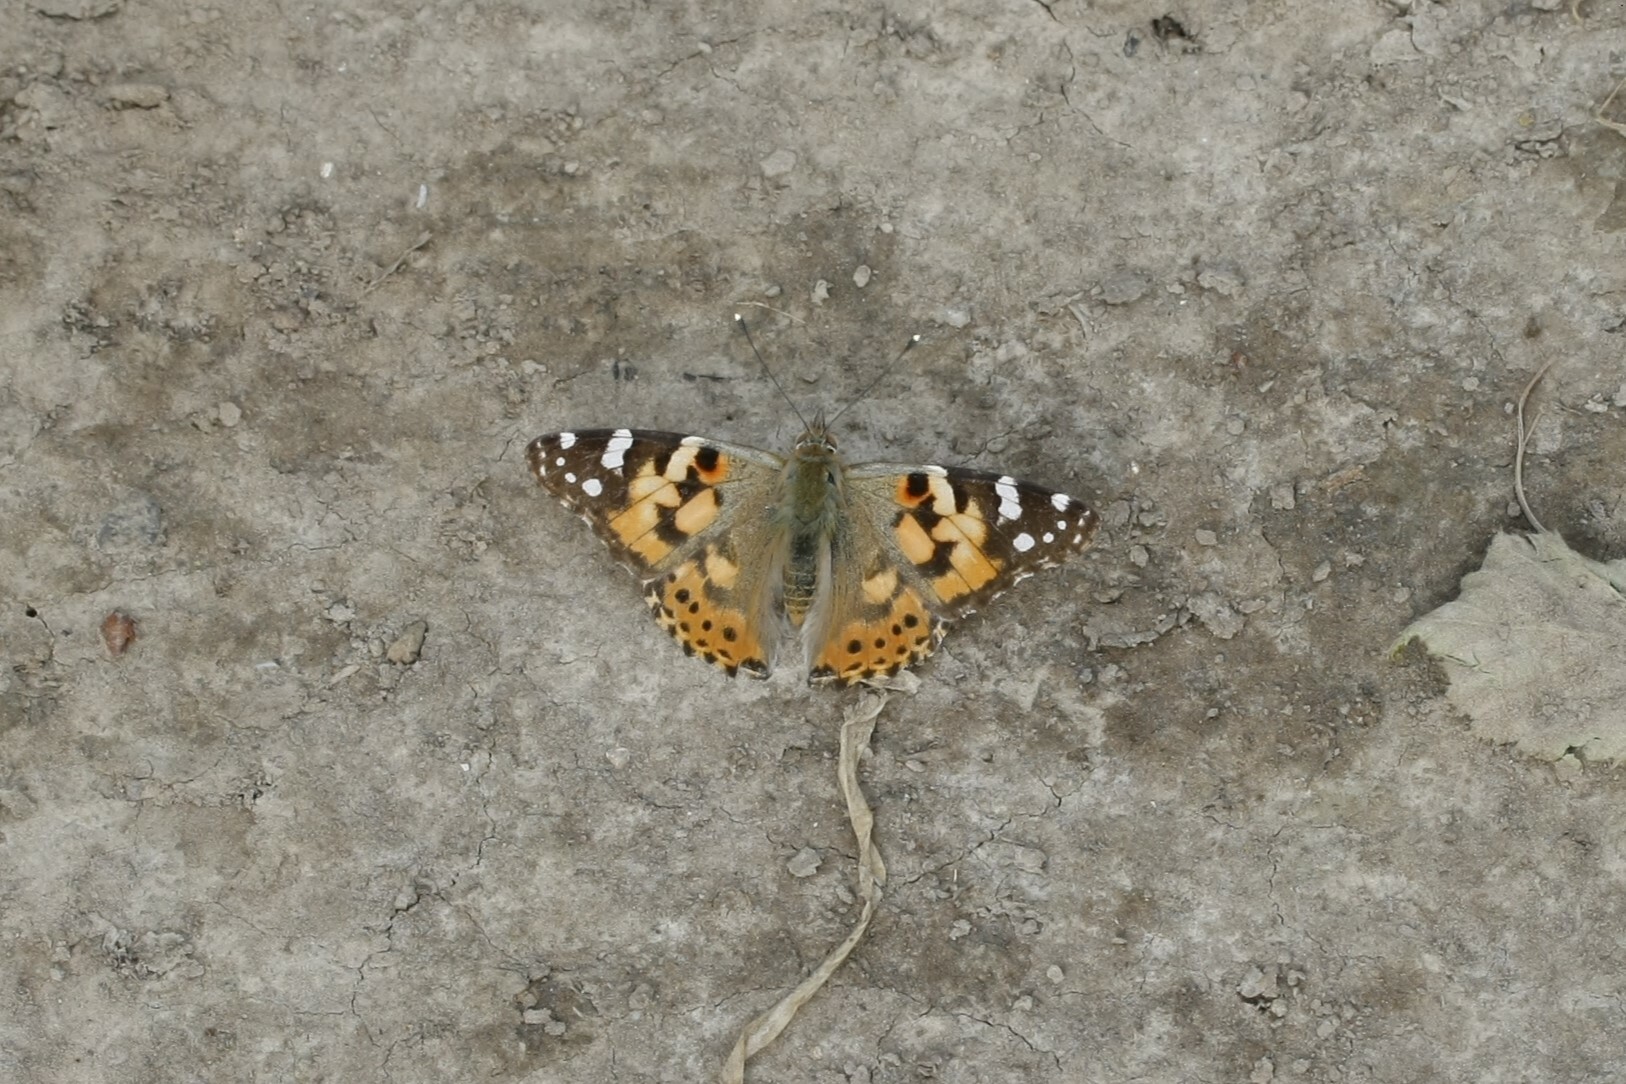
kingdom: Animalia
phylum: Arthropoda
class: Insecta
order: Lepidoptera
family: Nymphalidae
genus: Vanessa
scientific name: Vanessa cardui
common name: Painted lady
